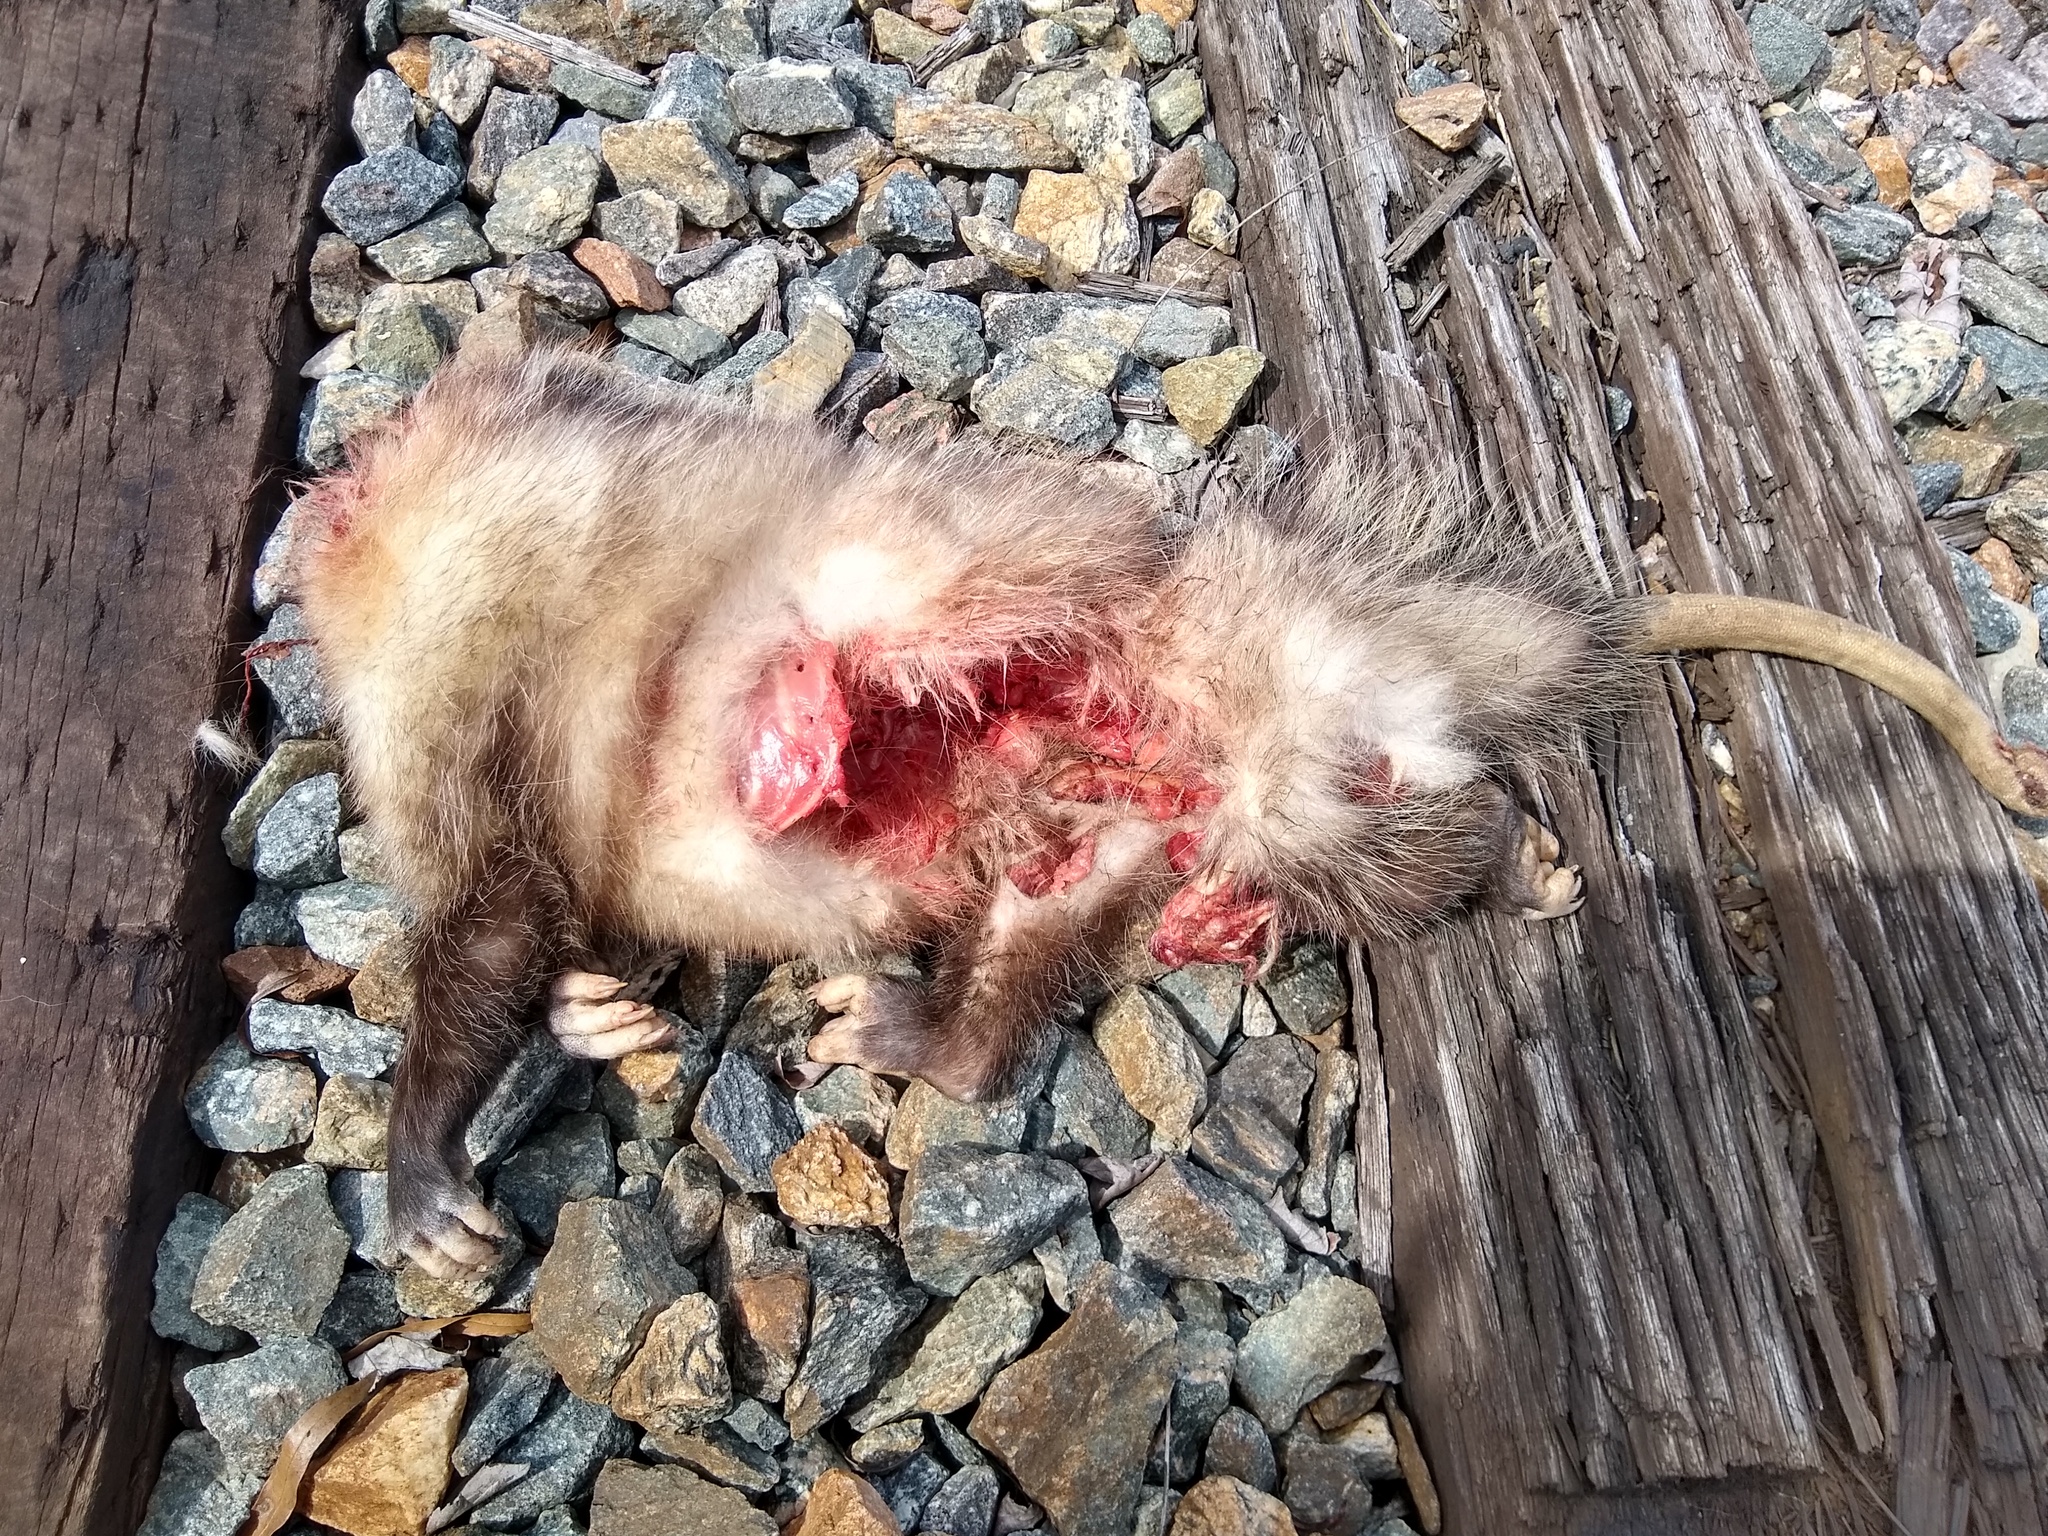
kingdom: Animalia
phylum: Chordata
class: Mammalia
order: Didelphimorphia
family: Didelphidae
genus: Didelphis
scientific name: Didelphis virginiana
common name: Virginia opossum
